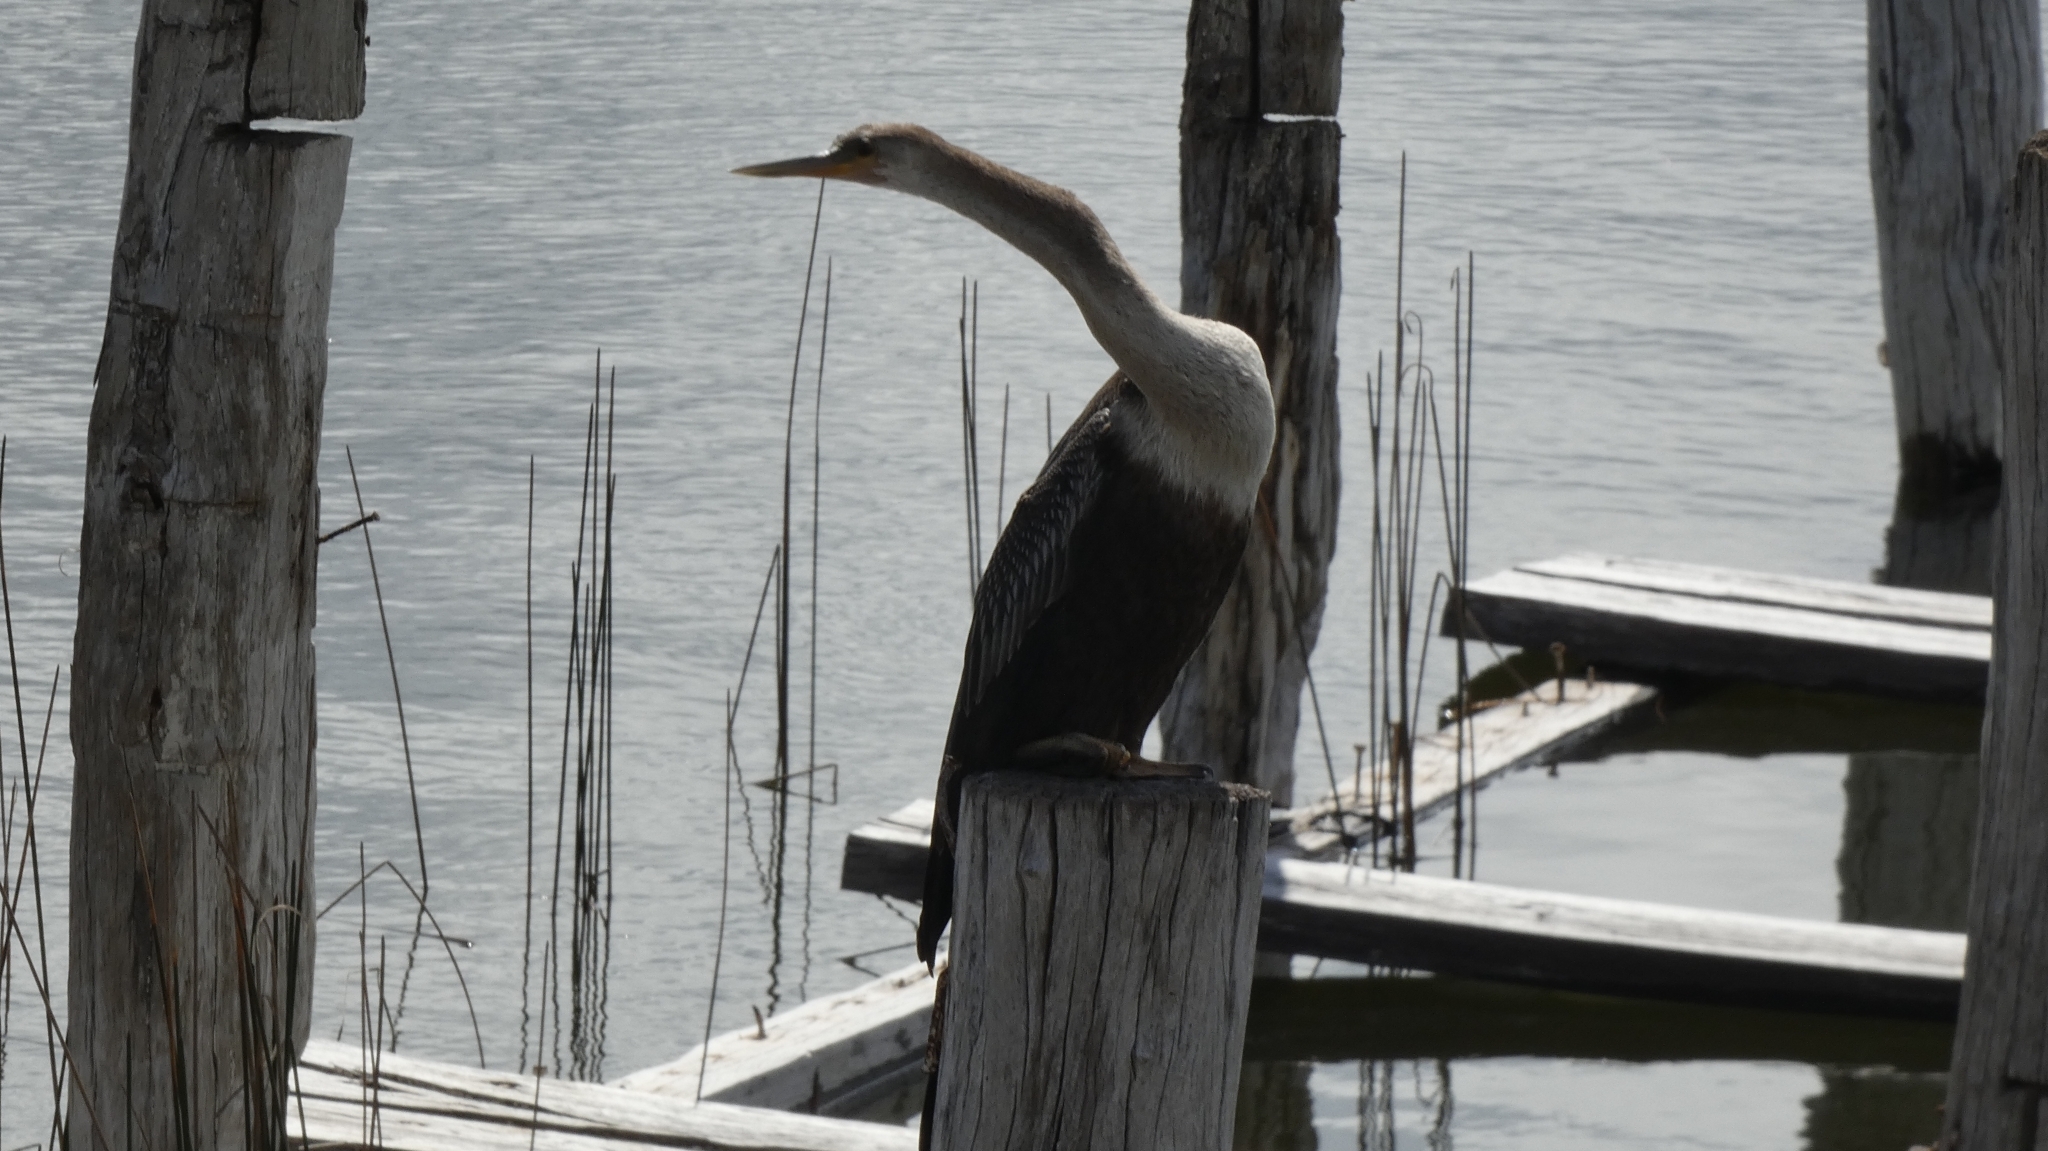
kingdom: Animalia
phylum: Chordata
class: Aves
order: Suliformes
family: Anhingidae
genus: Anhinga
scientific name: Anhinga anhinga
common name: Anhinga
